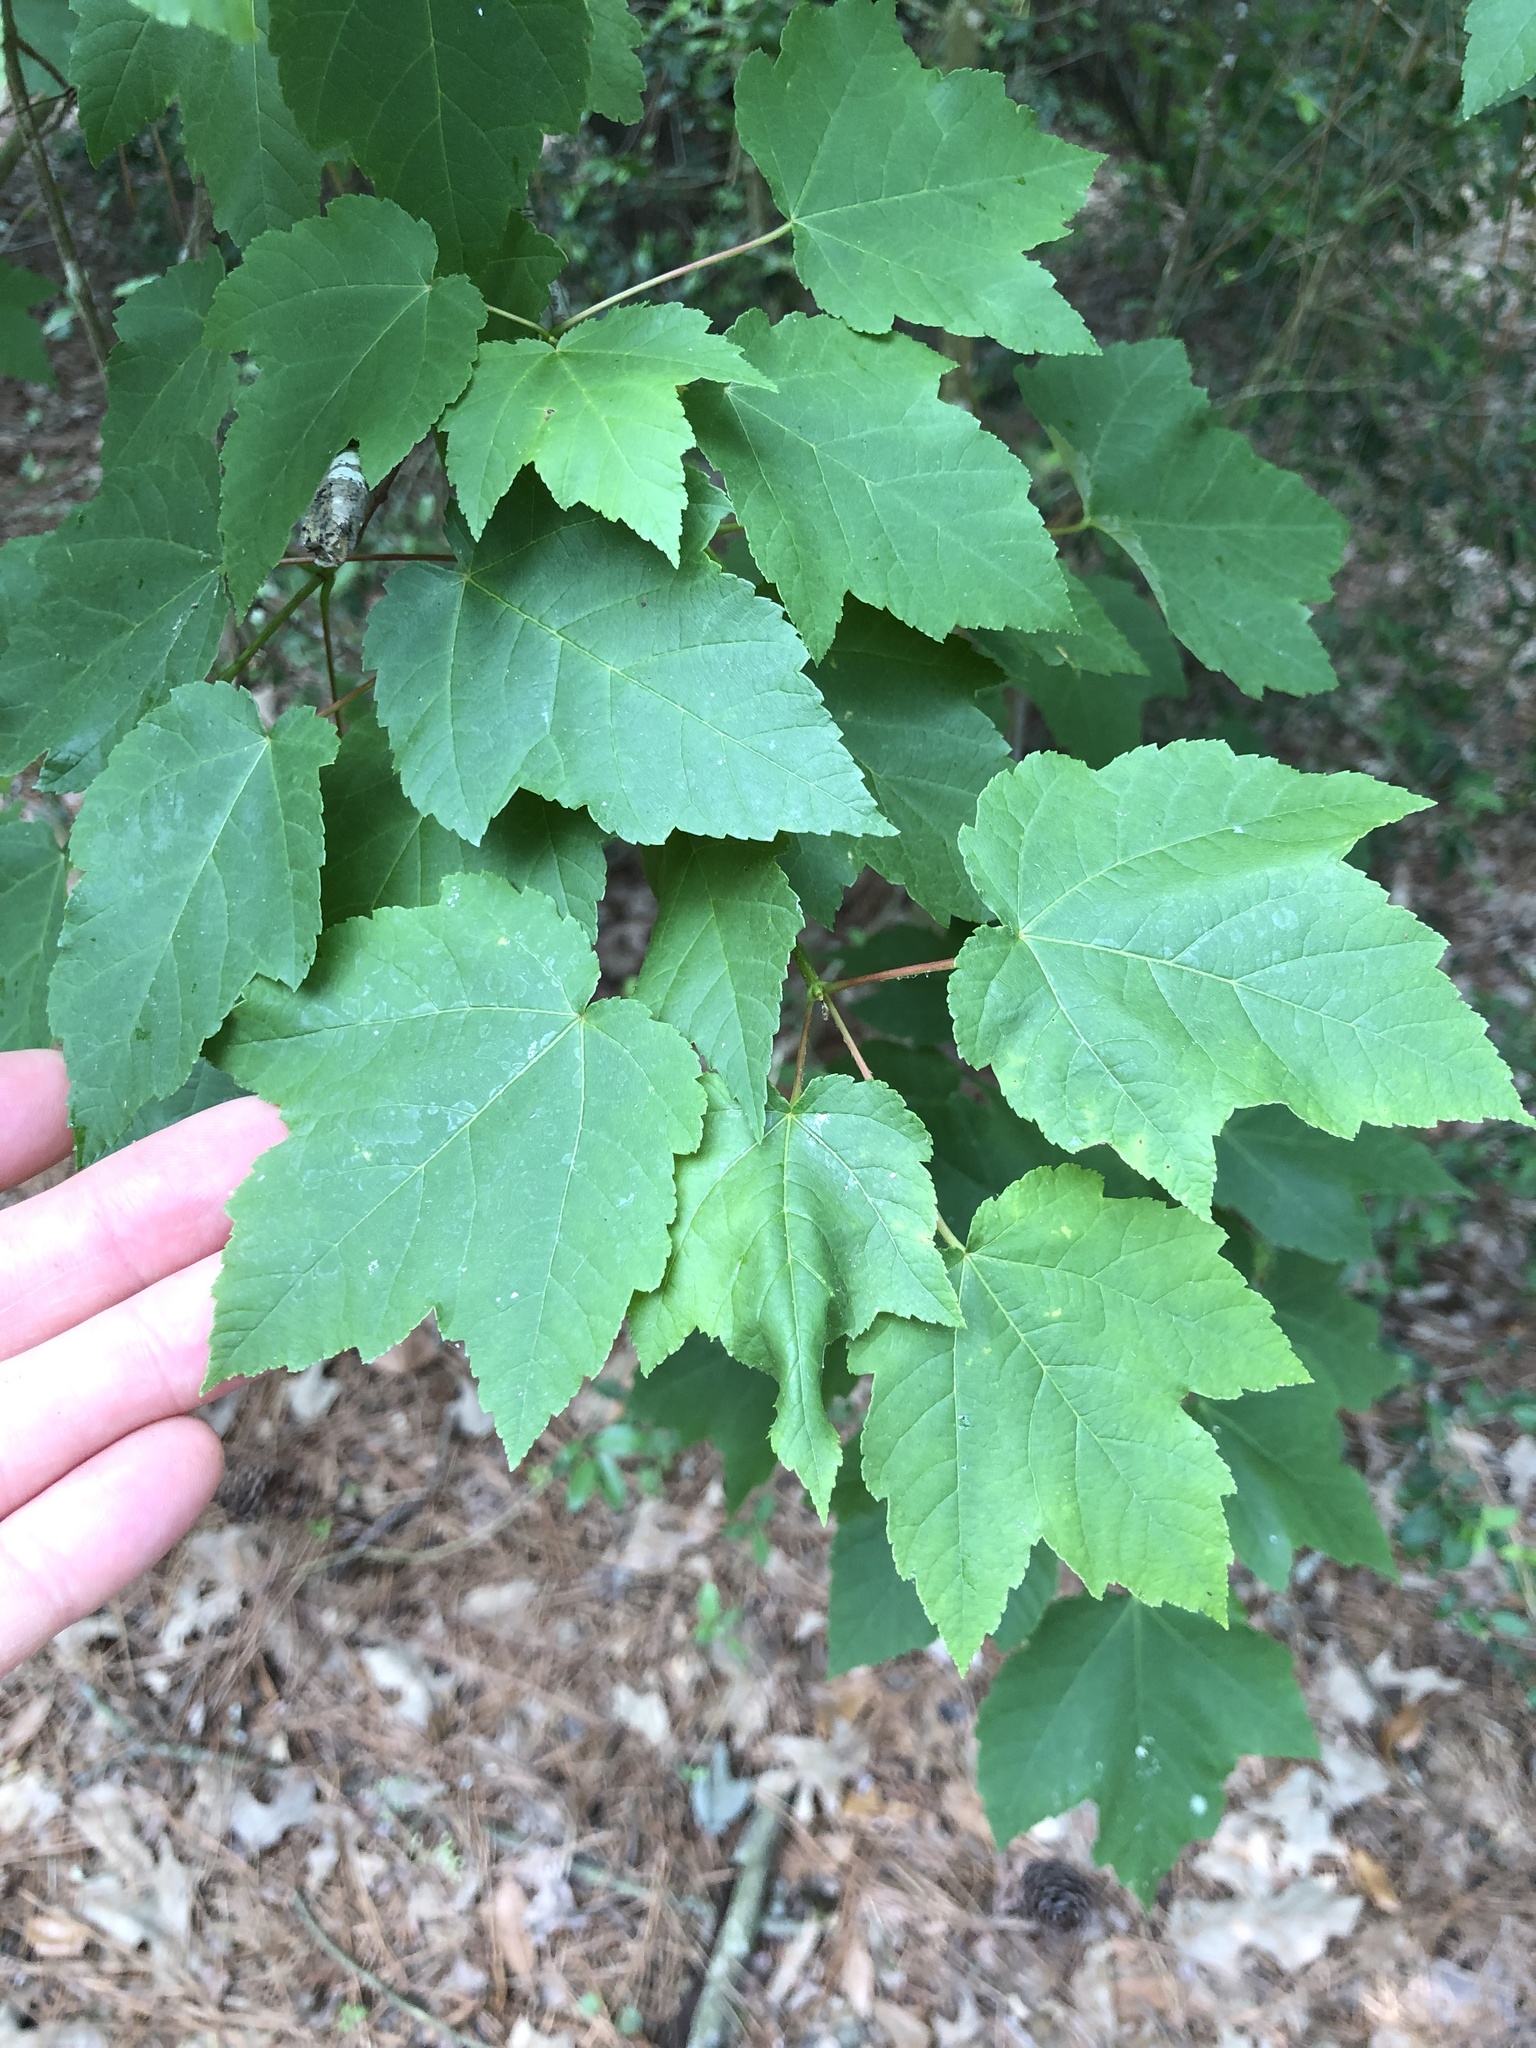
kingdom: Plantae
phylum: Tracheophyta
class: Magnoliopsida
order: Sapindales
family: Sapindaceae
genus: Acer
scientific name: Acer rubrum
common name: Red maple
